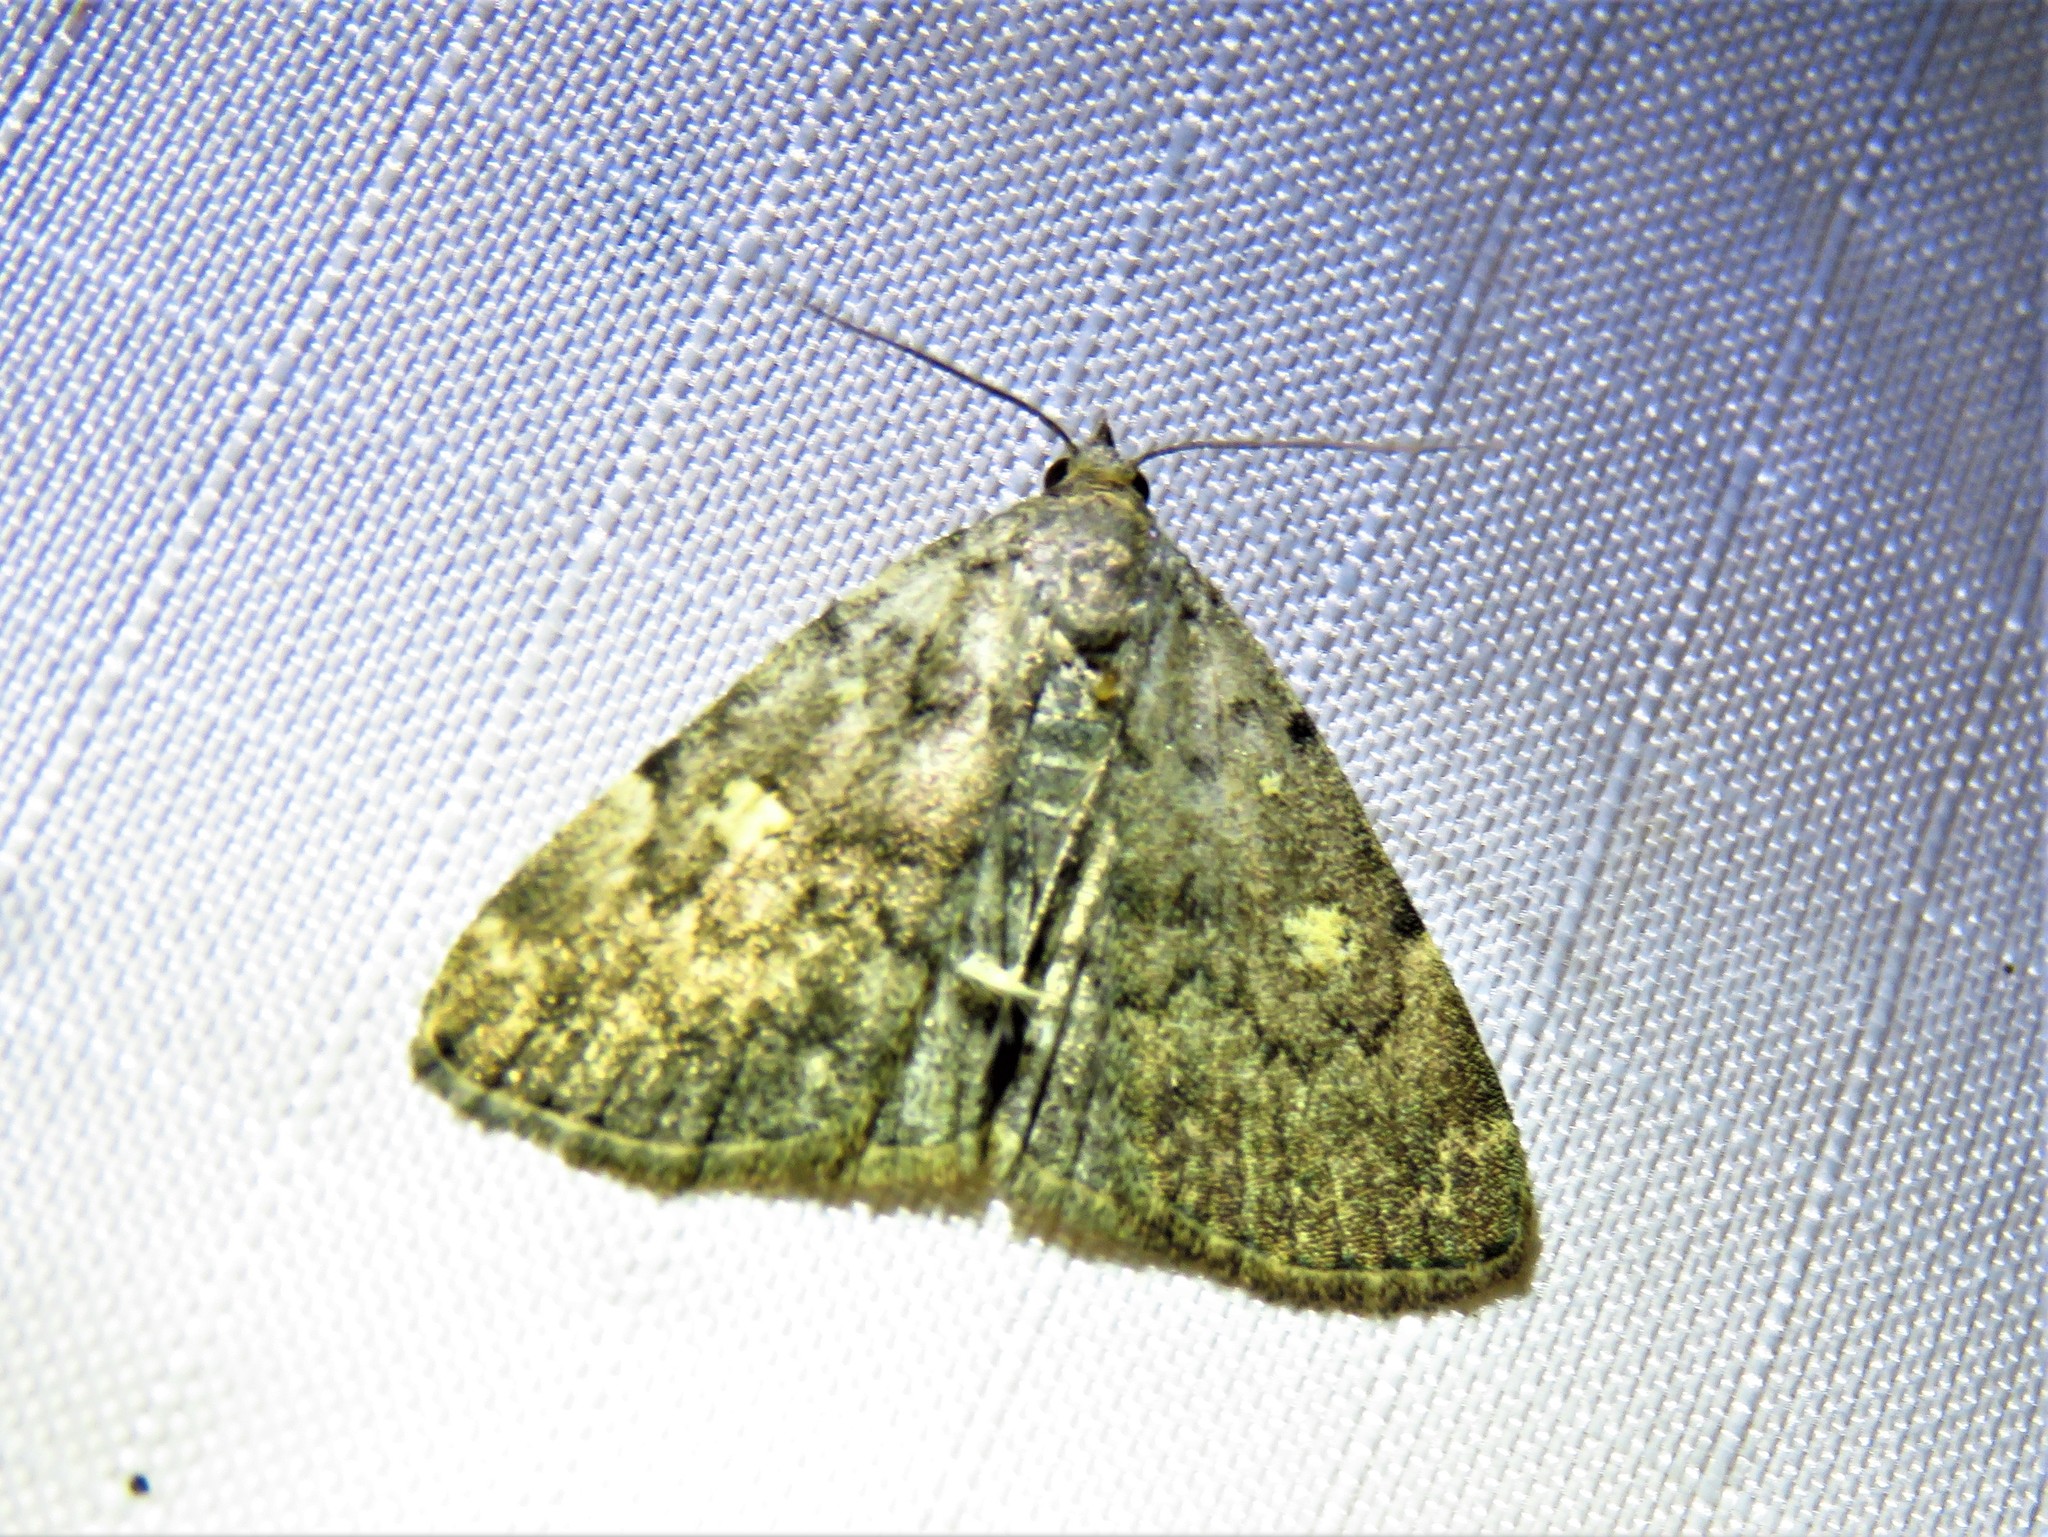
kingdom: Animalia
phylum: Arthropoda
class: Insecta
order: Lepidoptera
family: Erebidae
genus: Idia
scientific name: Idia aemula
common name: Common idia moth
